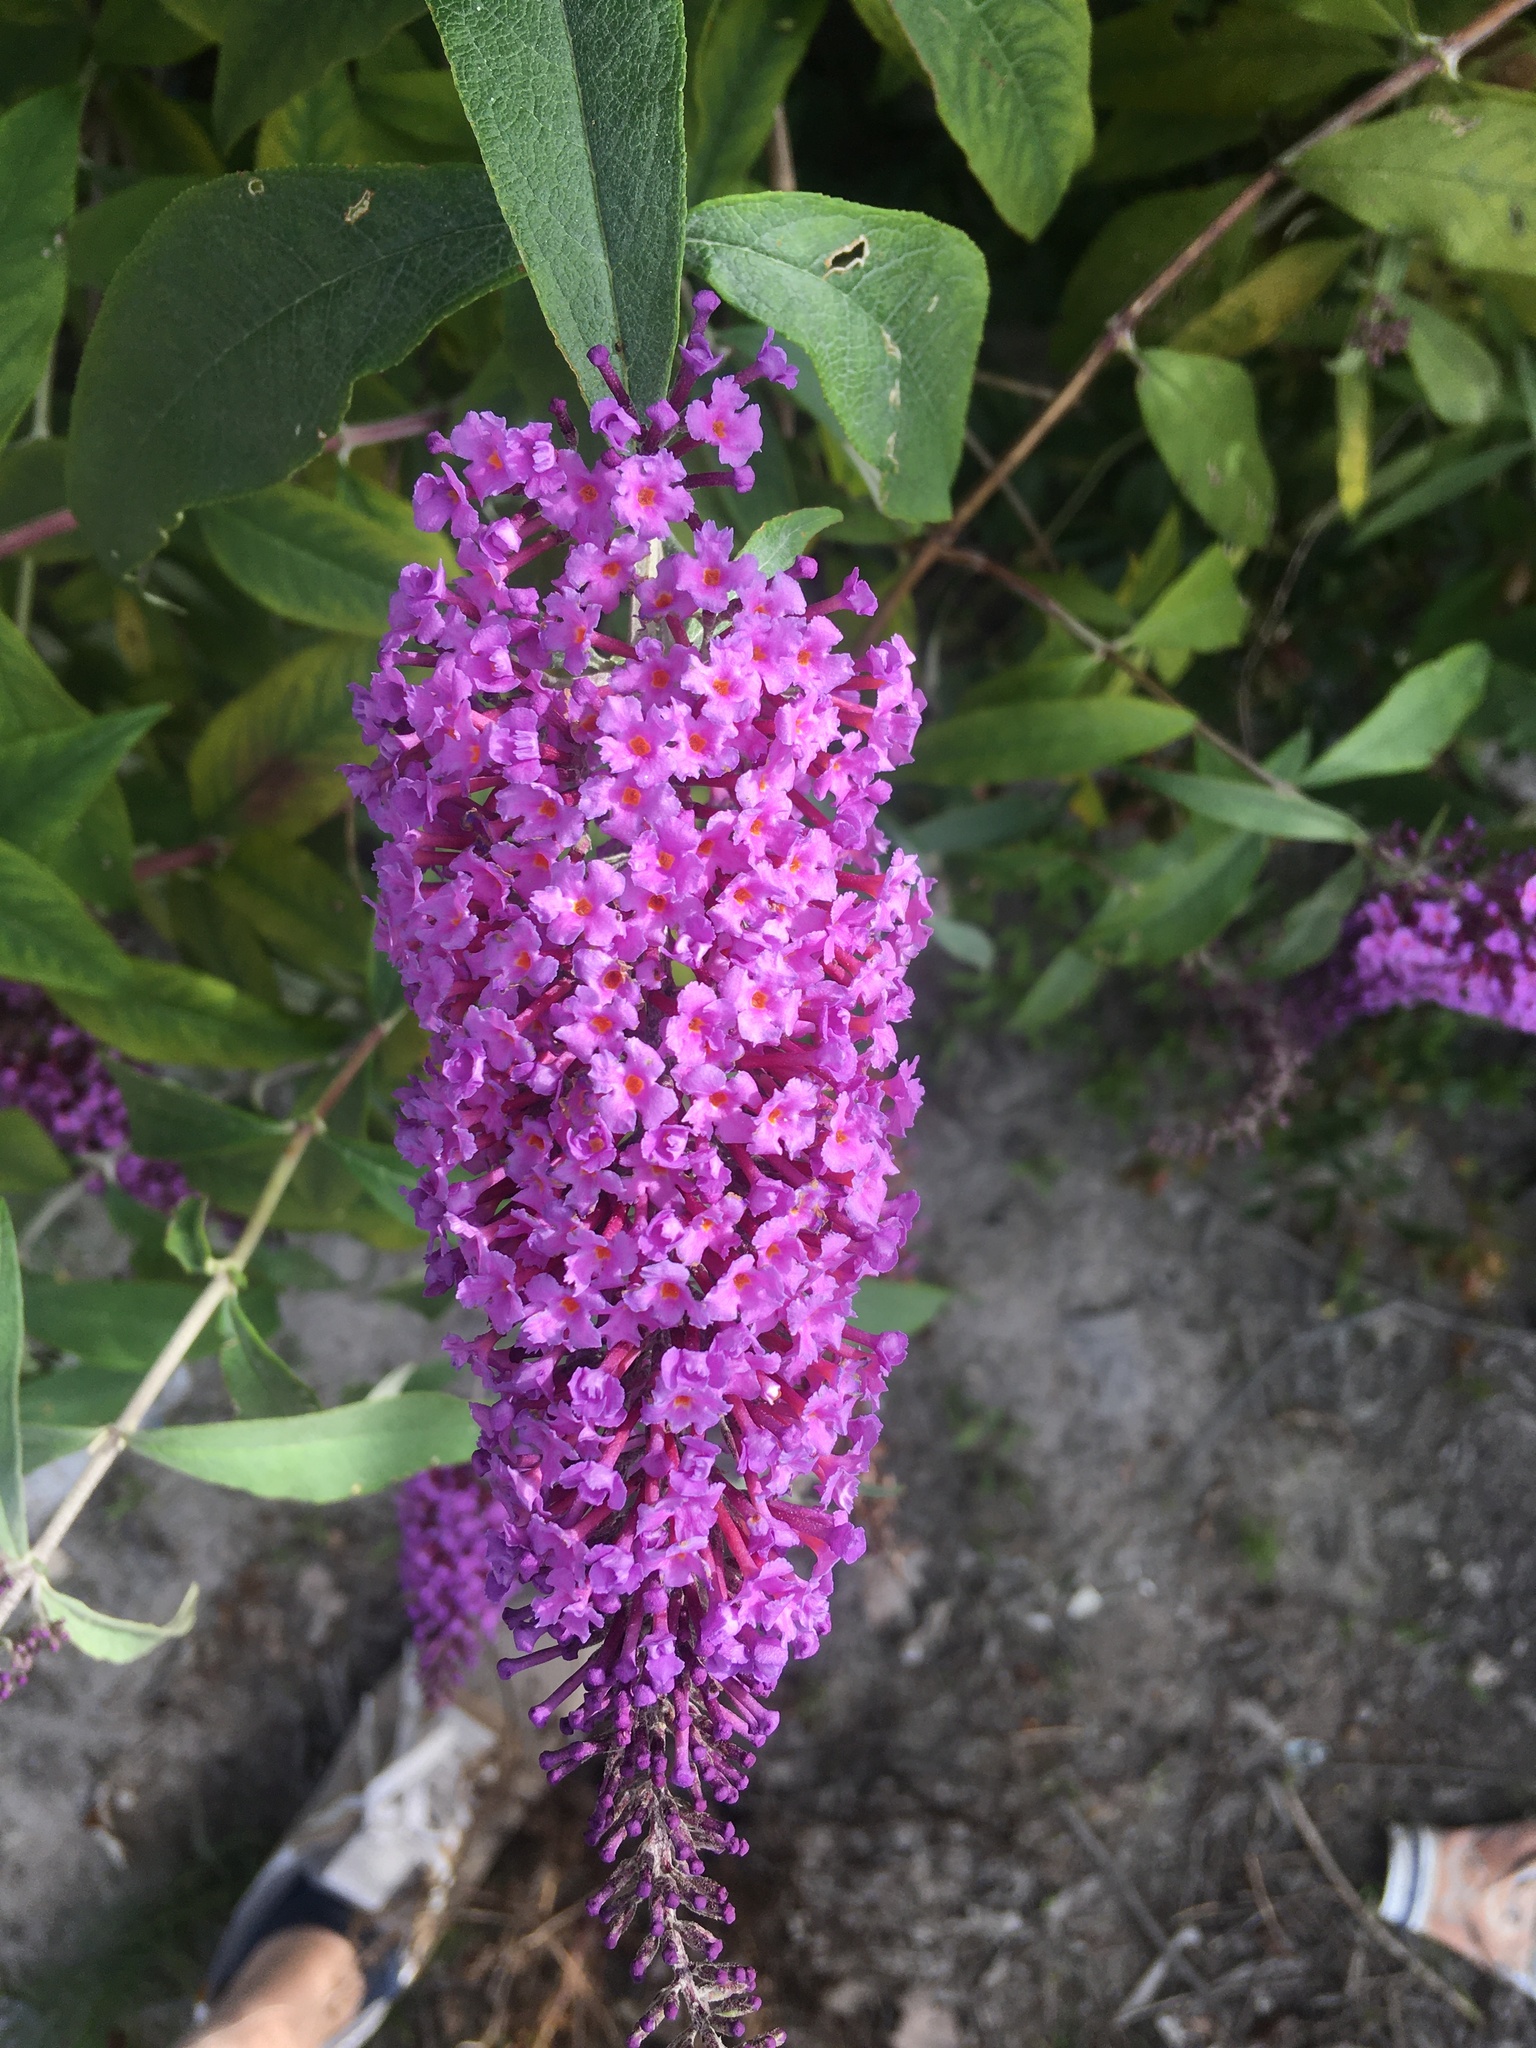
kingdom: Plantae
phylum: Tracheophyta
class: Magnoliopsida
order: Lamiales
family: Scrophulariaceae
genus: Buddleja
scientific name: Buddleja davidii
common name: Butterfly-bush
